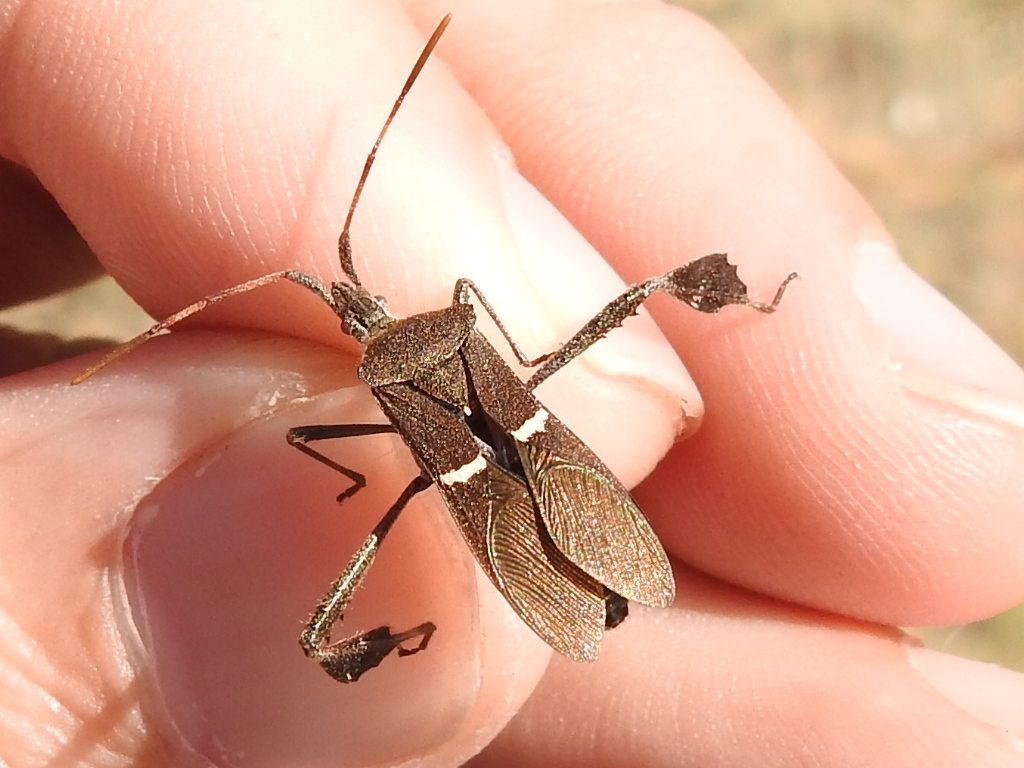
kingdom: Animalia
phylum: Arthropoda
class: Insecta
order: Hemiptera
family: Coreidae
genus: Leptoglossus
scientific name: Leptoglossus phyllopus
